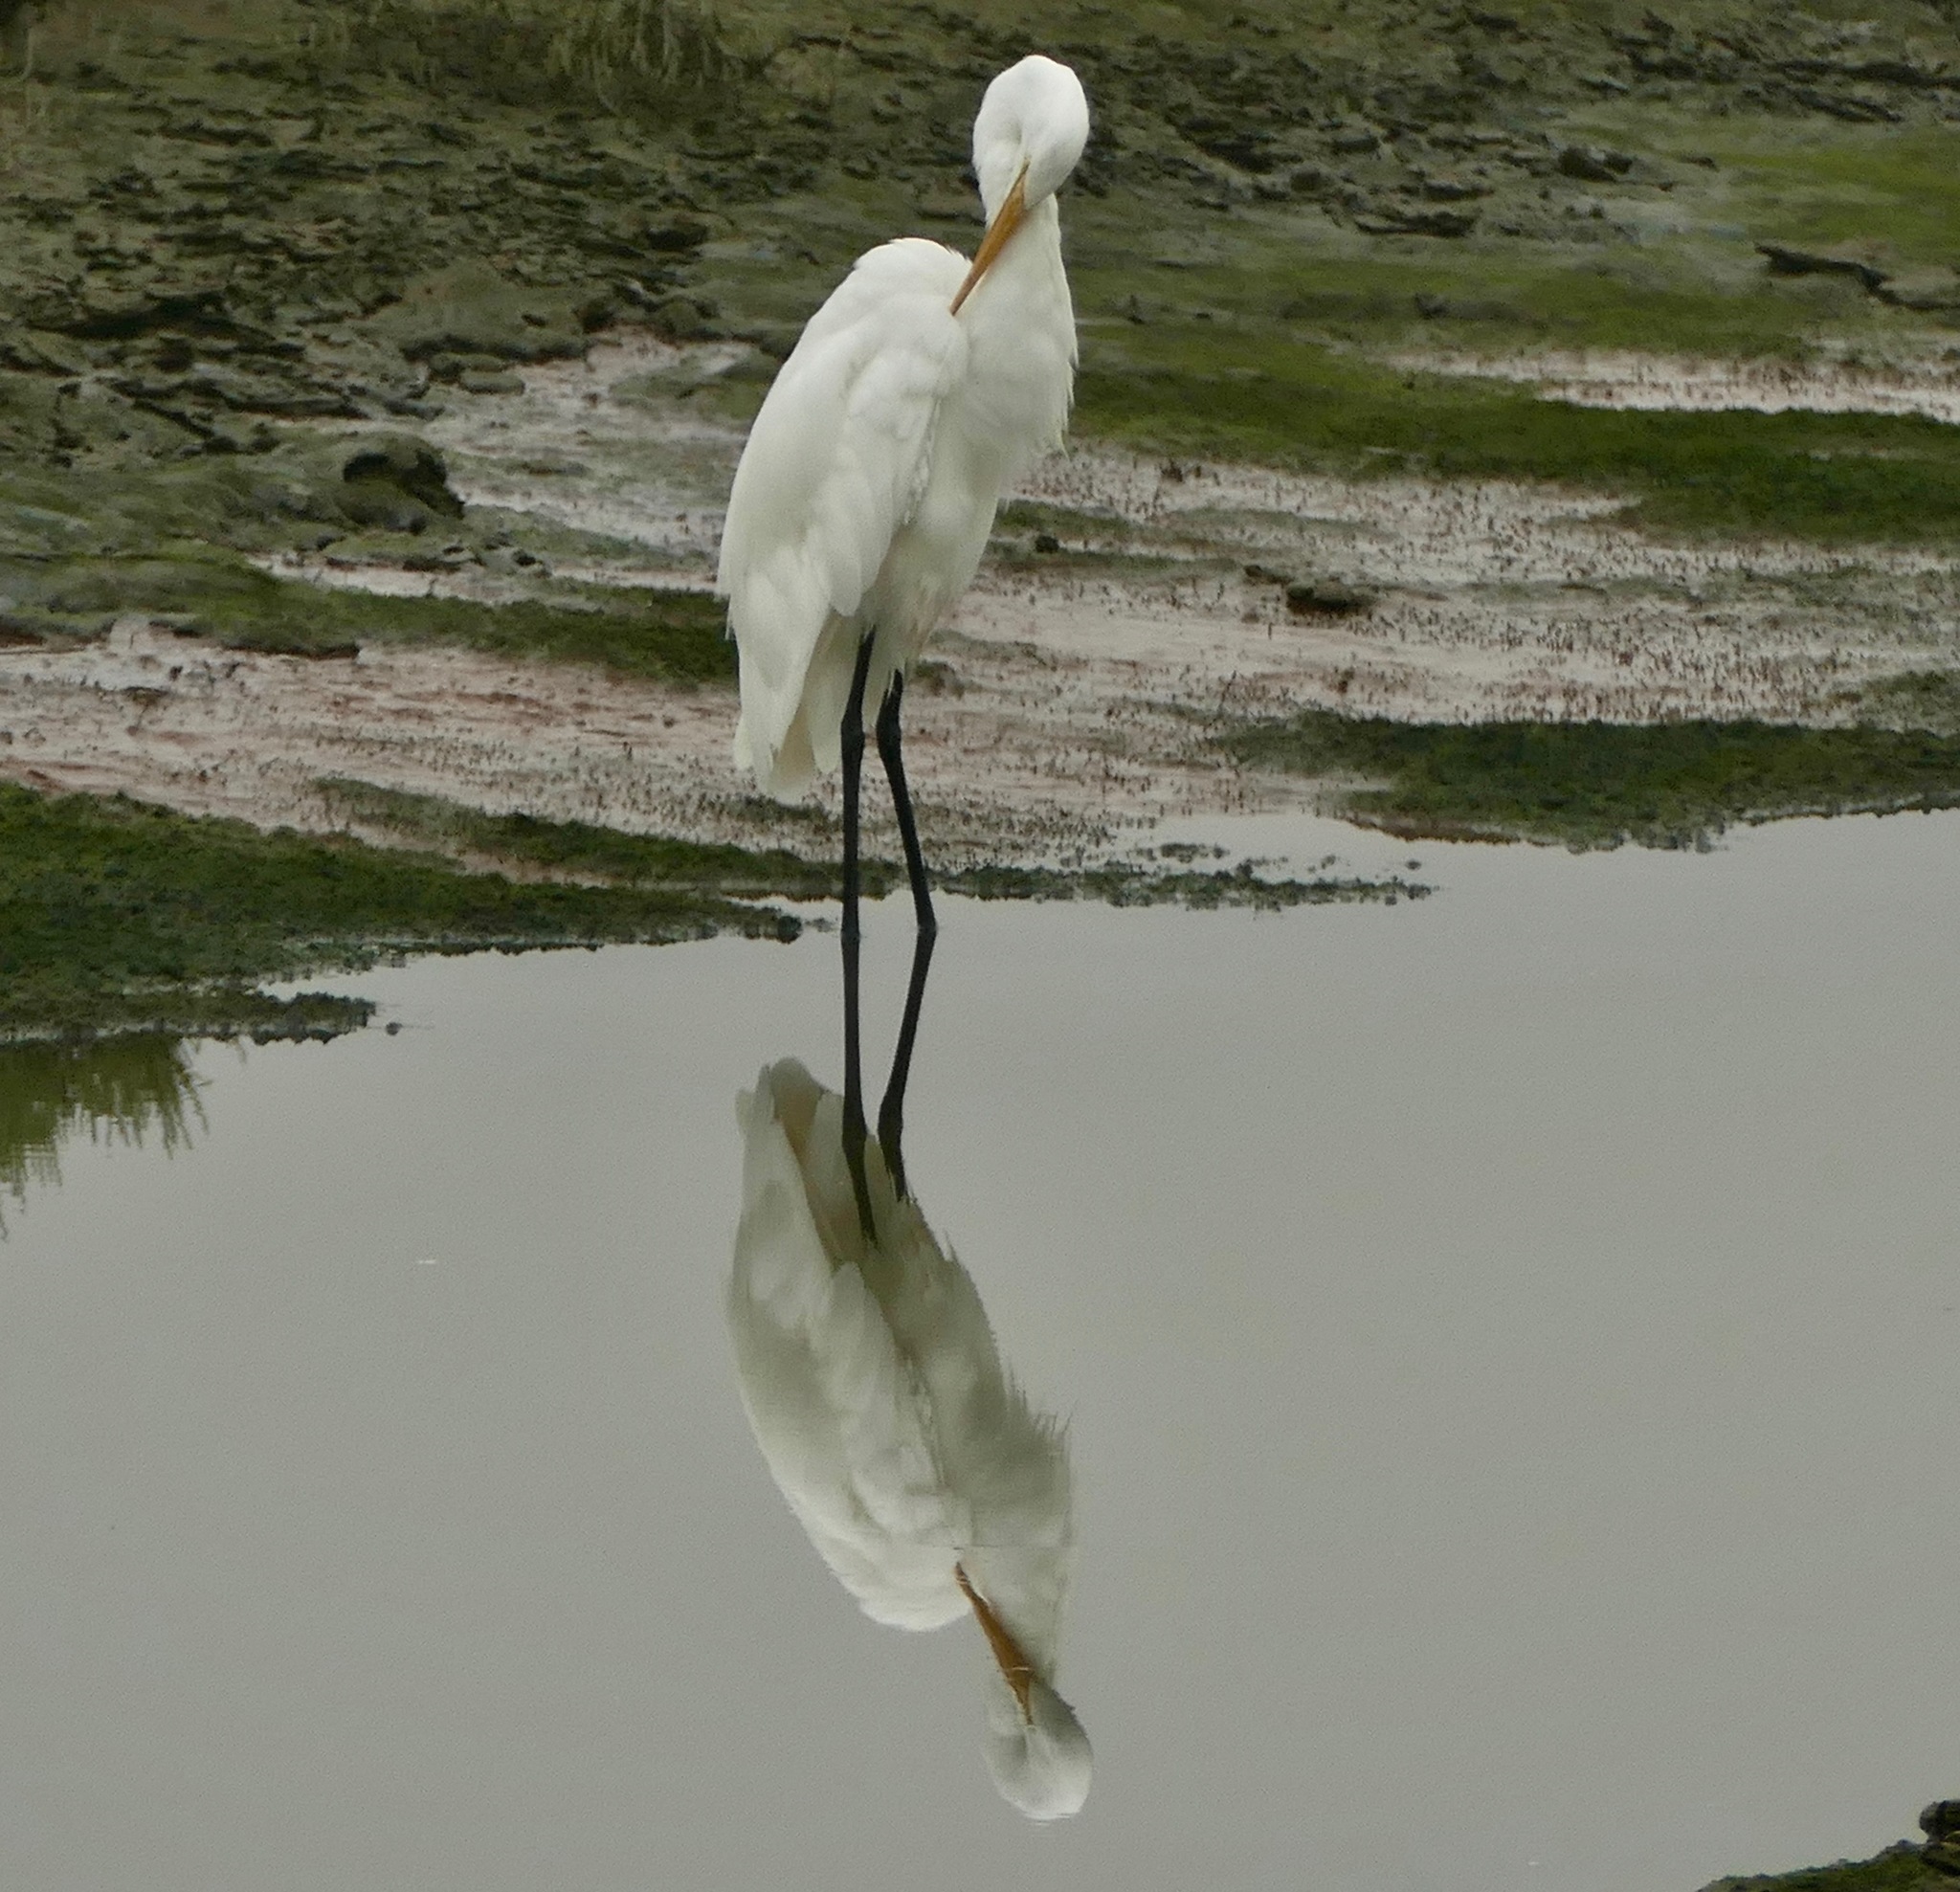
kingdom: Animalia
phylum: Chordata
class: Aves
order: Pelecaniformes
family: Ardeidae
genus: Ardea
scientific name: Ardea alba
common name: Great egret
